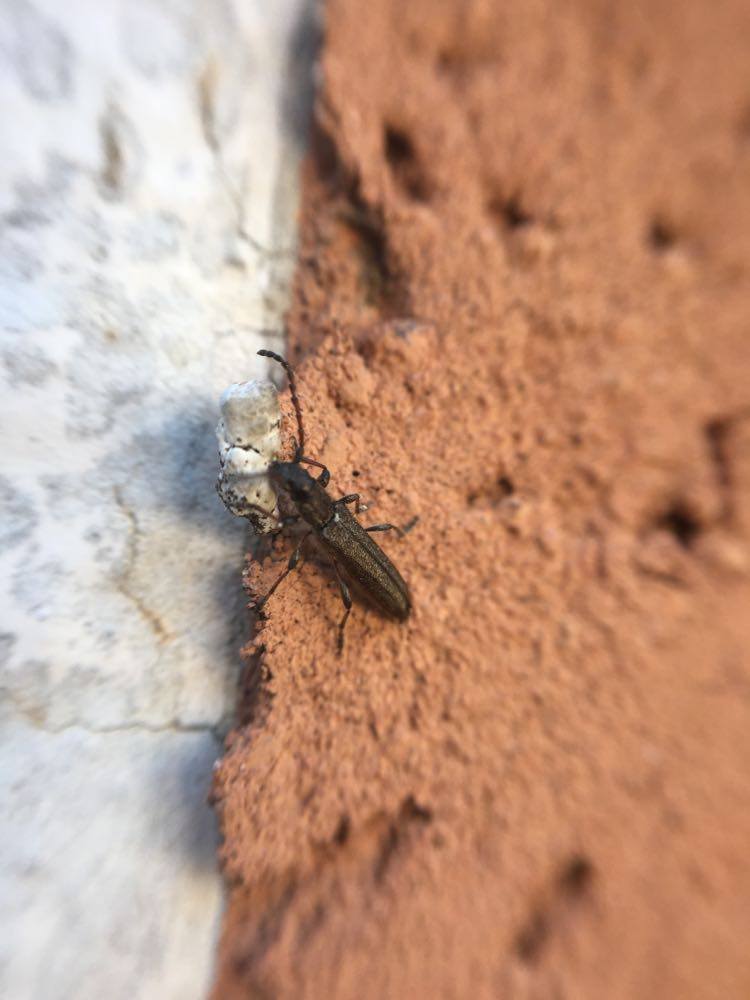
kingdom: Animalia
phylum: Arthropoda
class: Insecta
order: Coleoptera
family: Cerambycidae
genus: Deilus
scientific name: Deilus fugax
